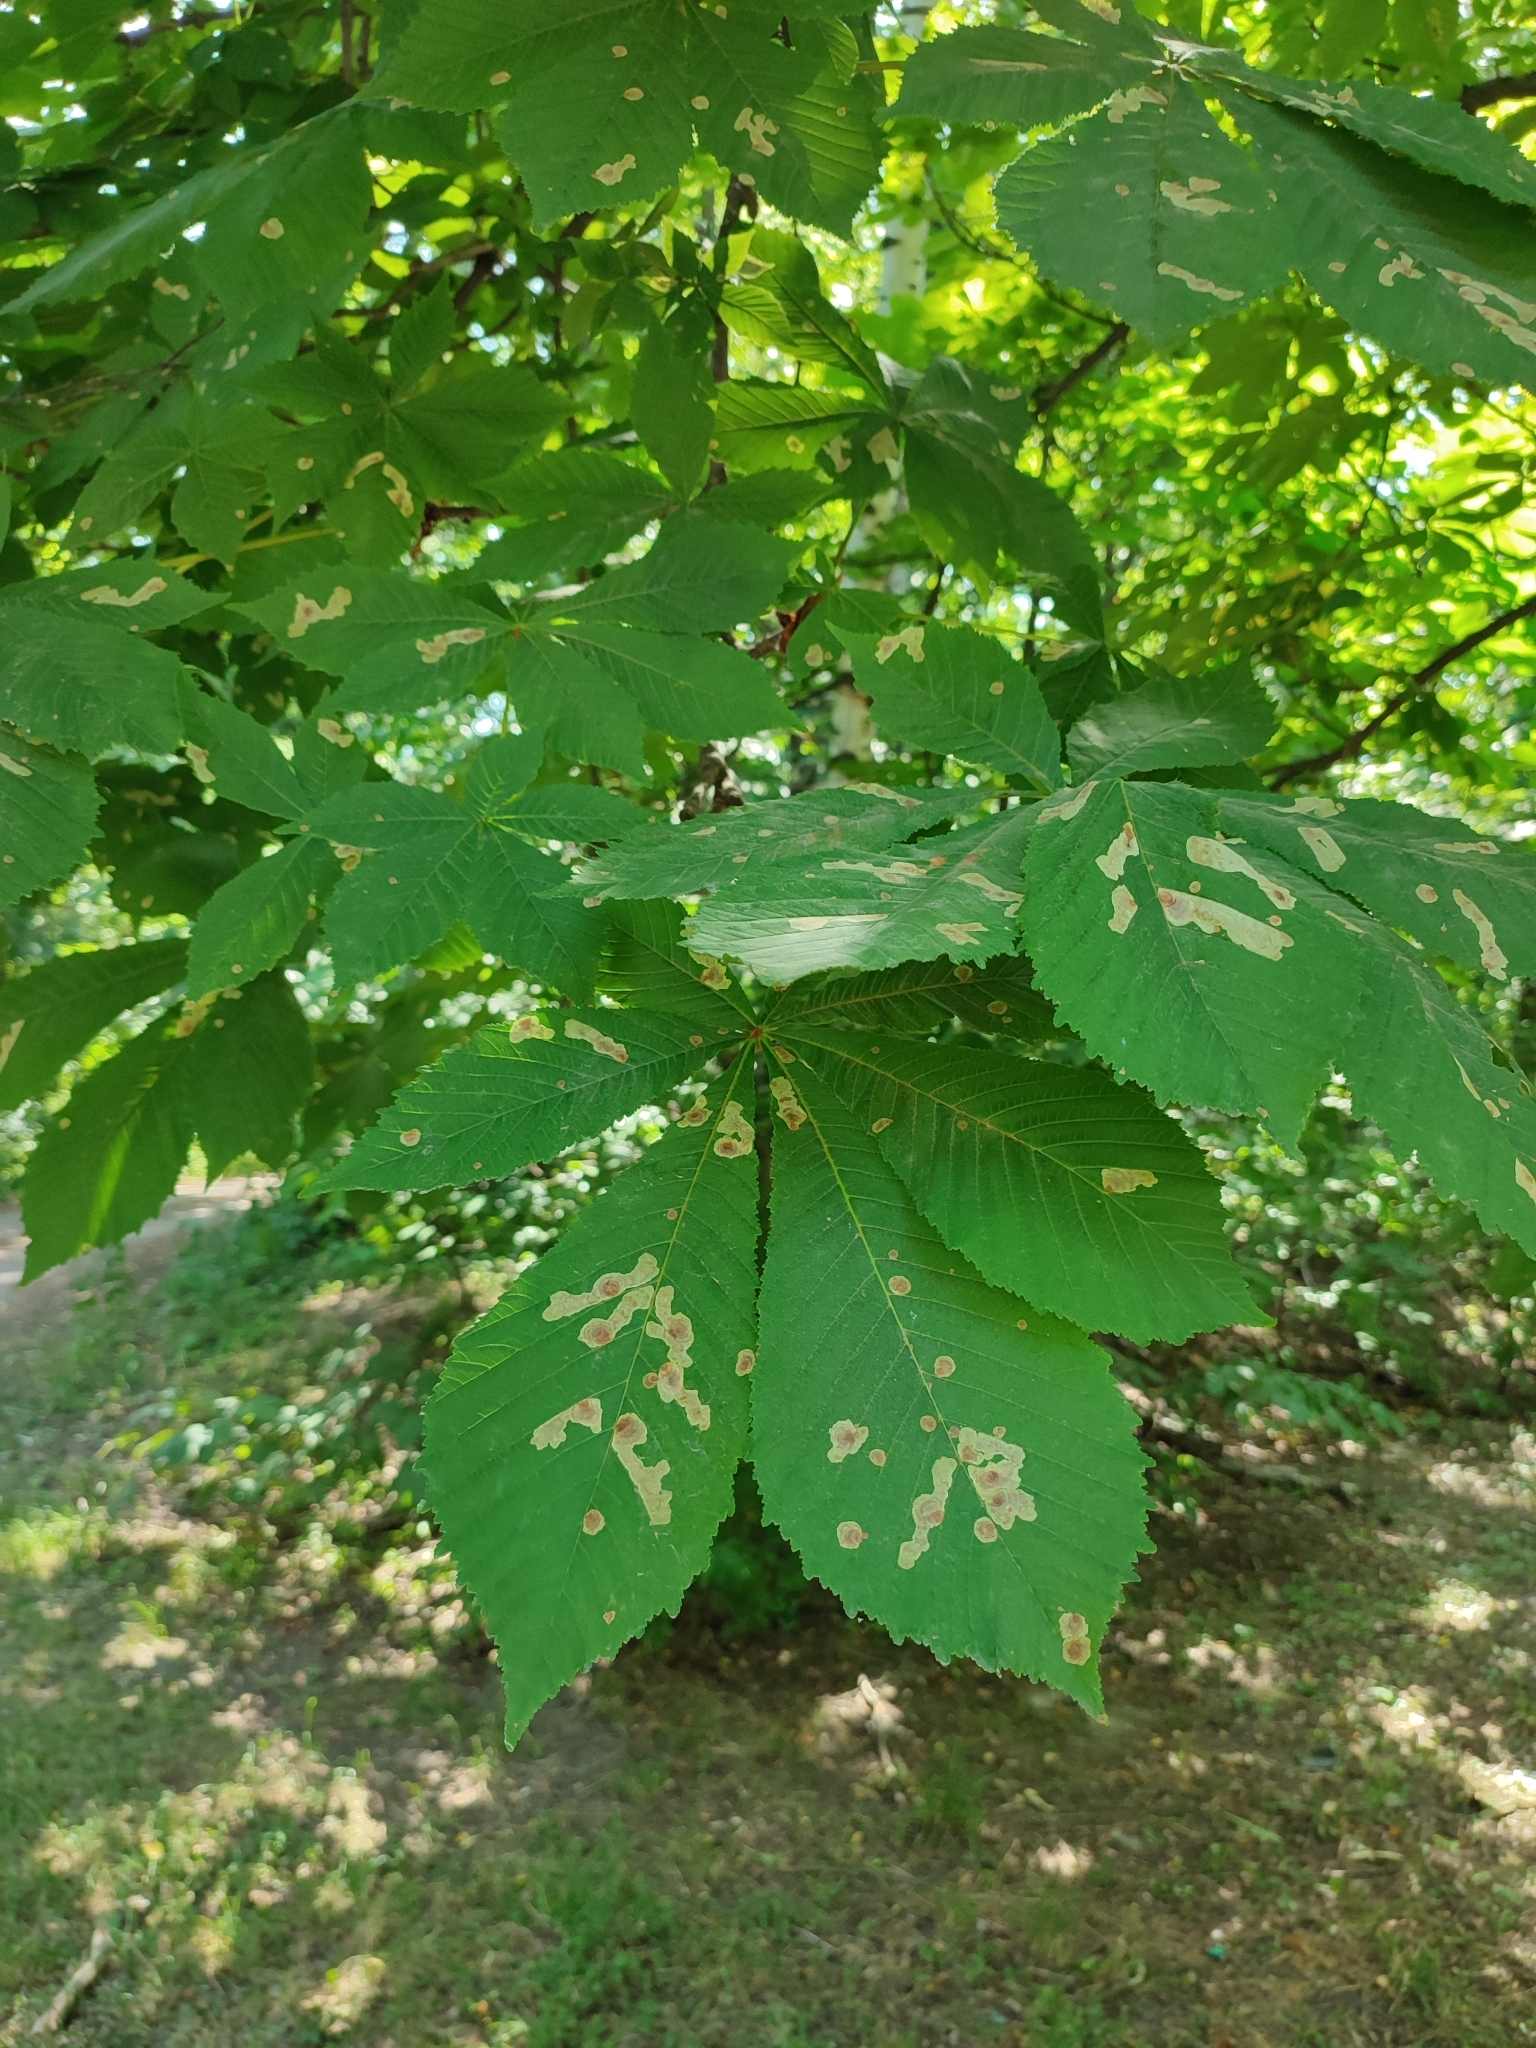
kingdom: Animalia
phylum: Arthropoda
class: Insecta
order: Lepidoptera
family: Gracillariidae
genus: Cameraria
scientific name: Cameraria ohridella
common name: Horse-chestnut leaf-miner
